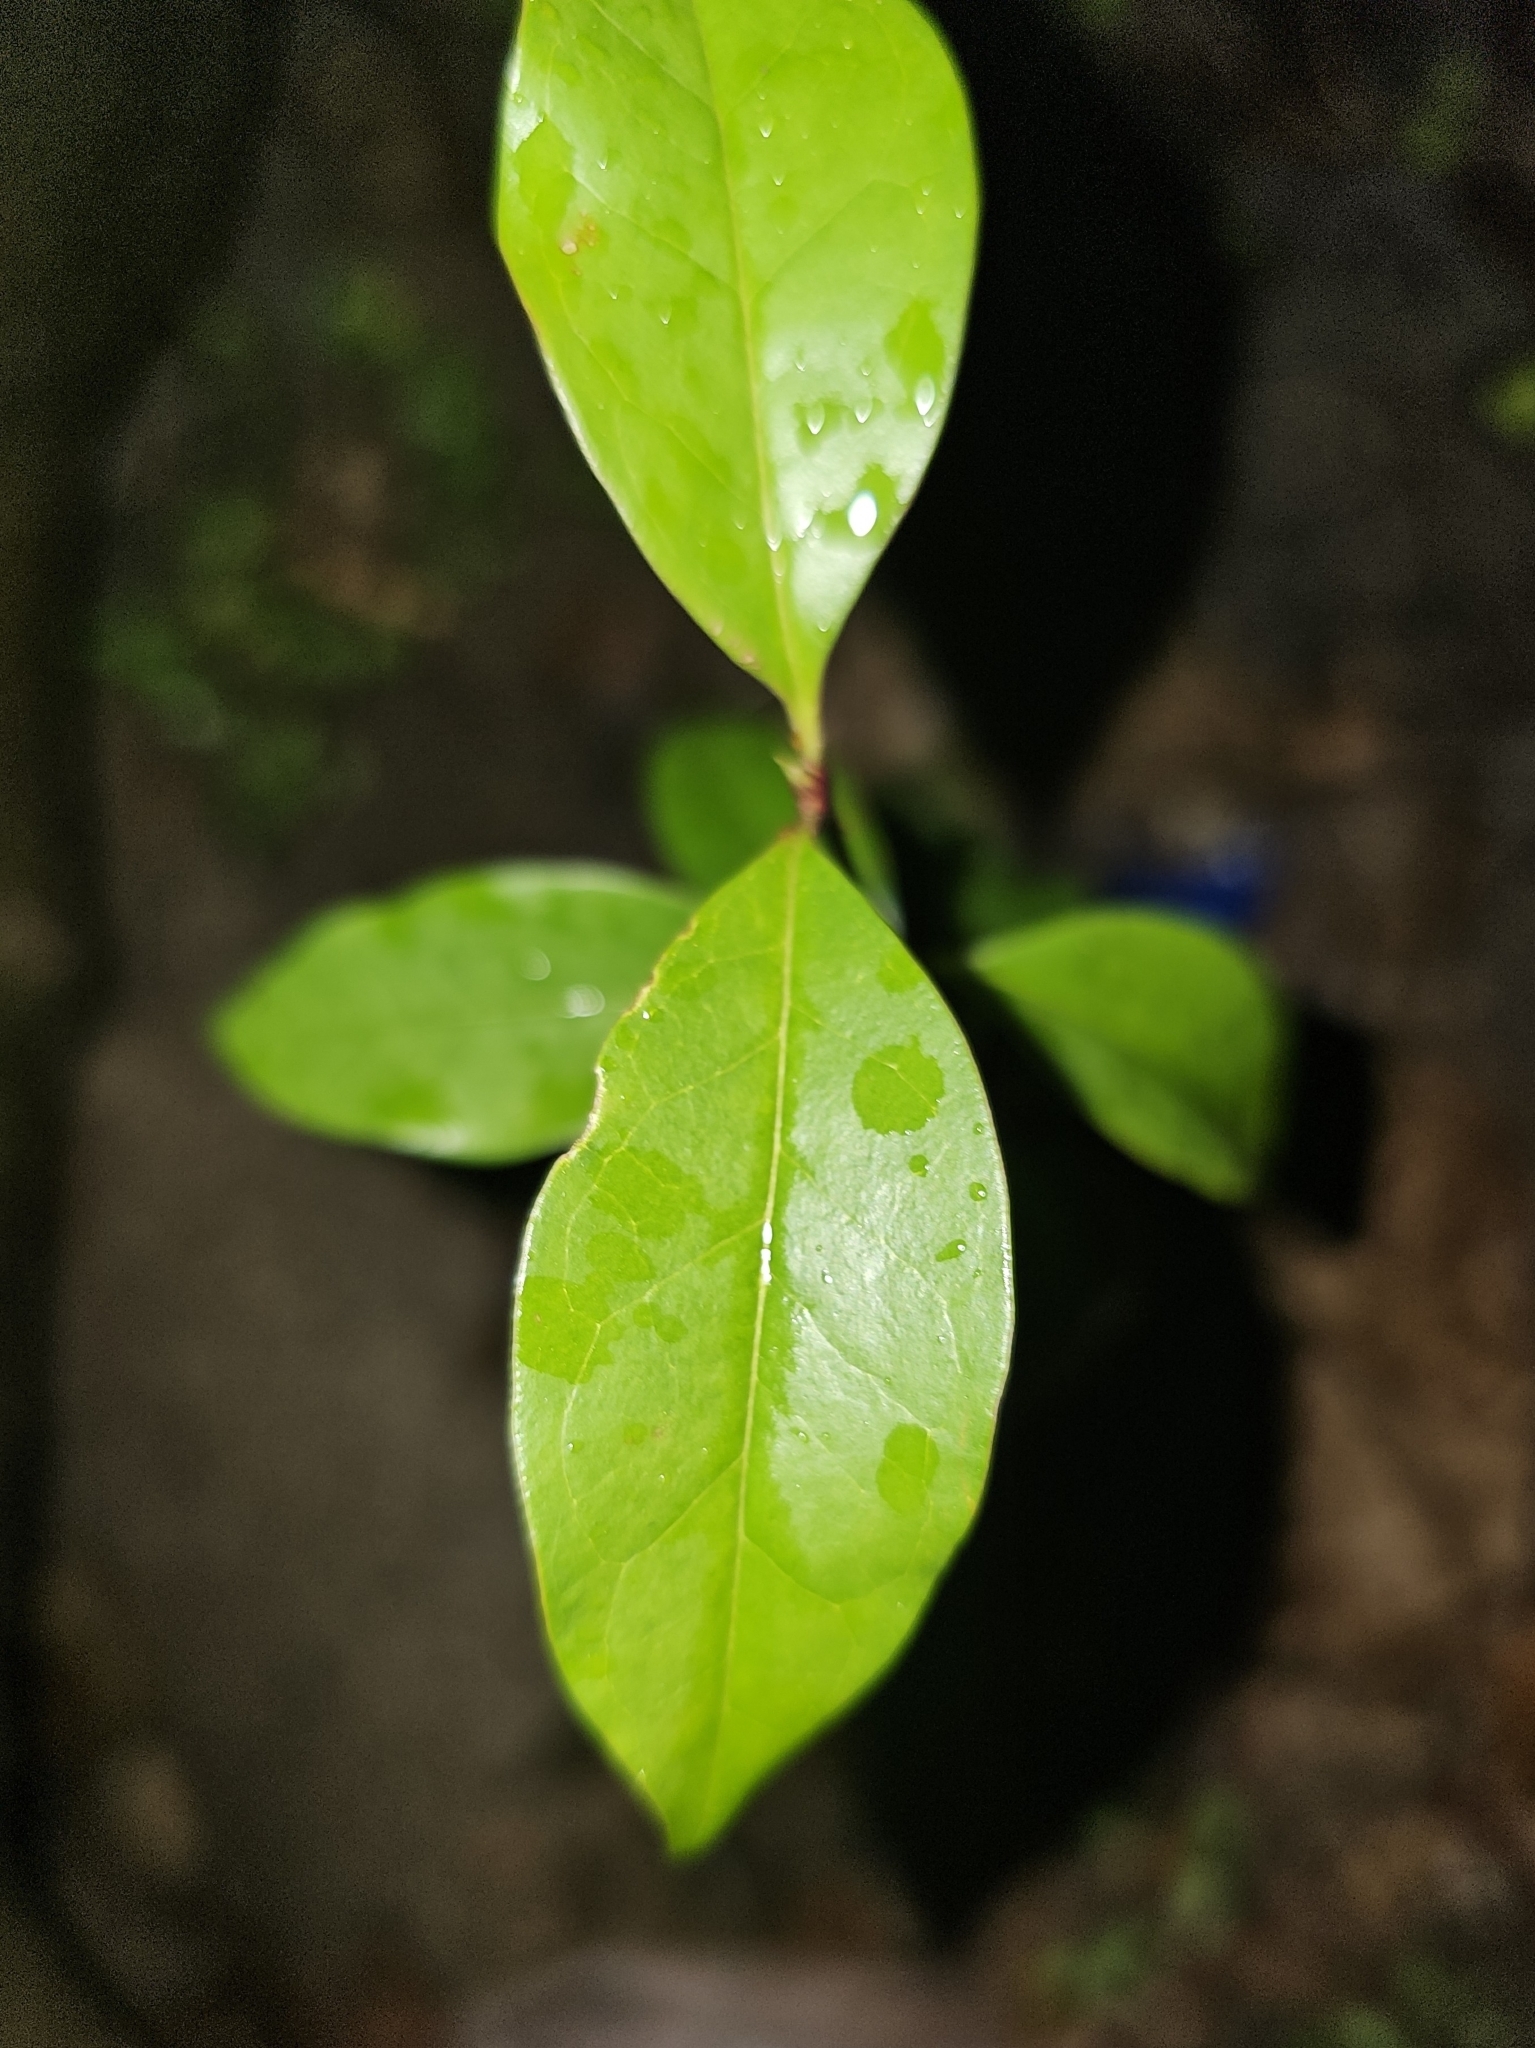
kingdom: Plantae
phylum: Tracheophyta
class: Magnoliopsida
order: Lamiales
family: Oleaceae
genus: Ligustrum
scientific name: Ligustrum lucidum
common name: Glossy privet
